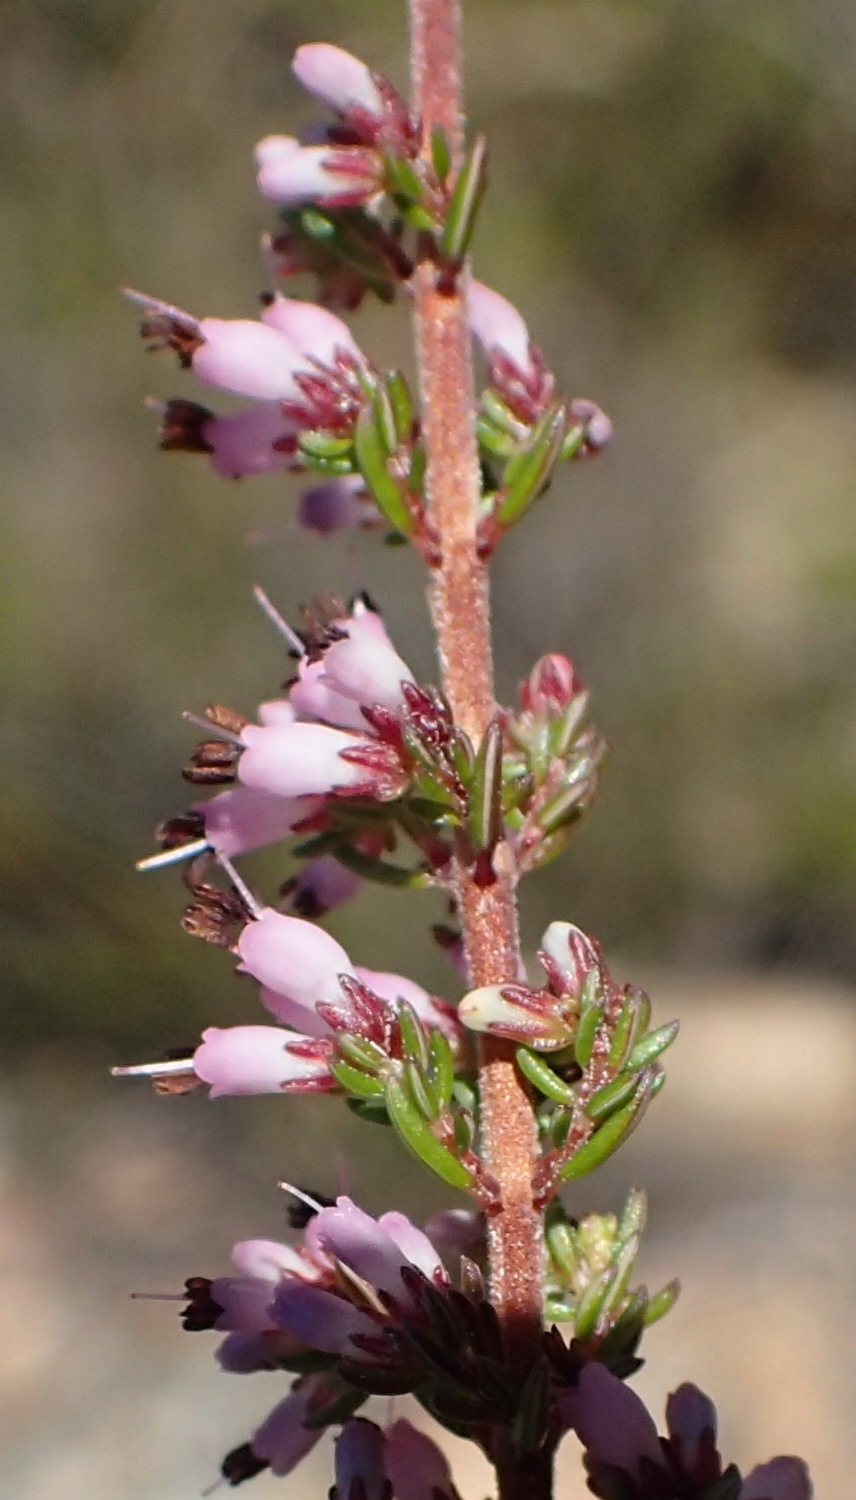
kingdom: Plantae
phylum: Tracheophyta
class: Magnoliopsida
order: Ericales
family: Ericaceae
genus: Erica
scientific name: Erica rosacea
